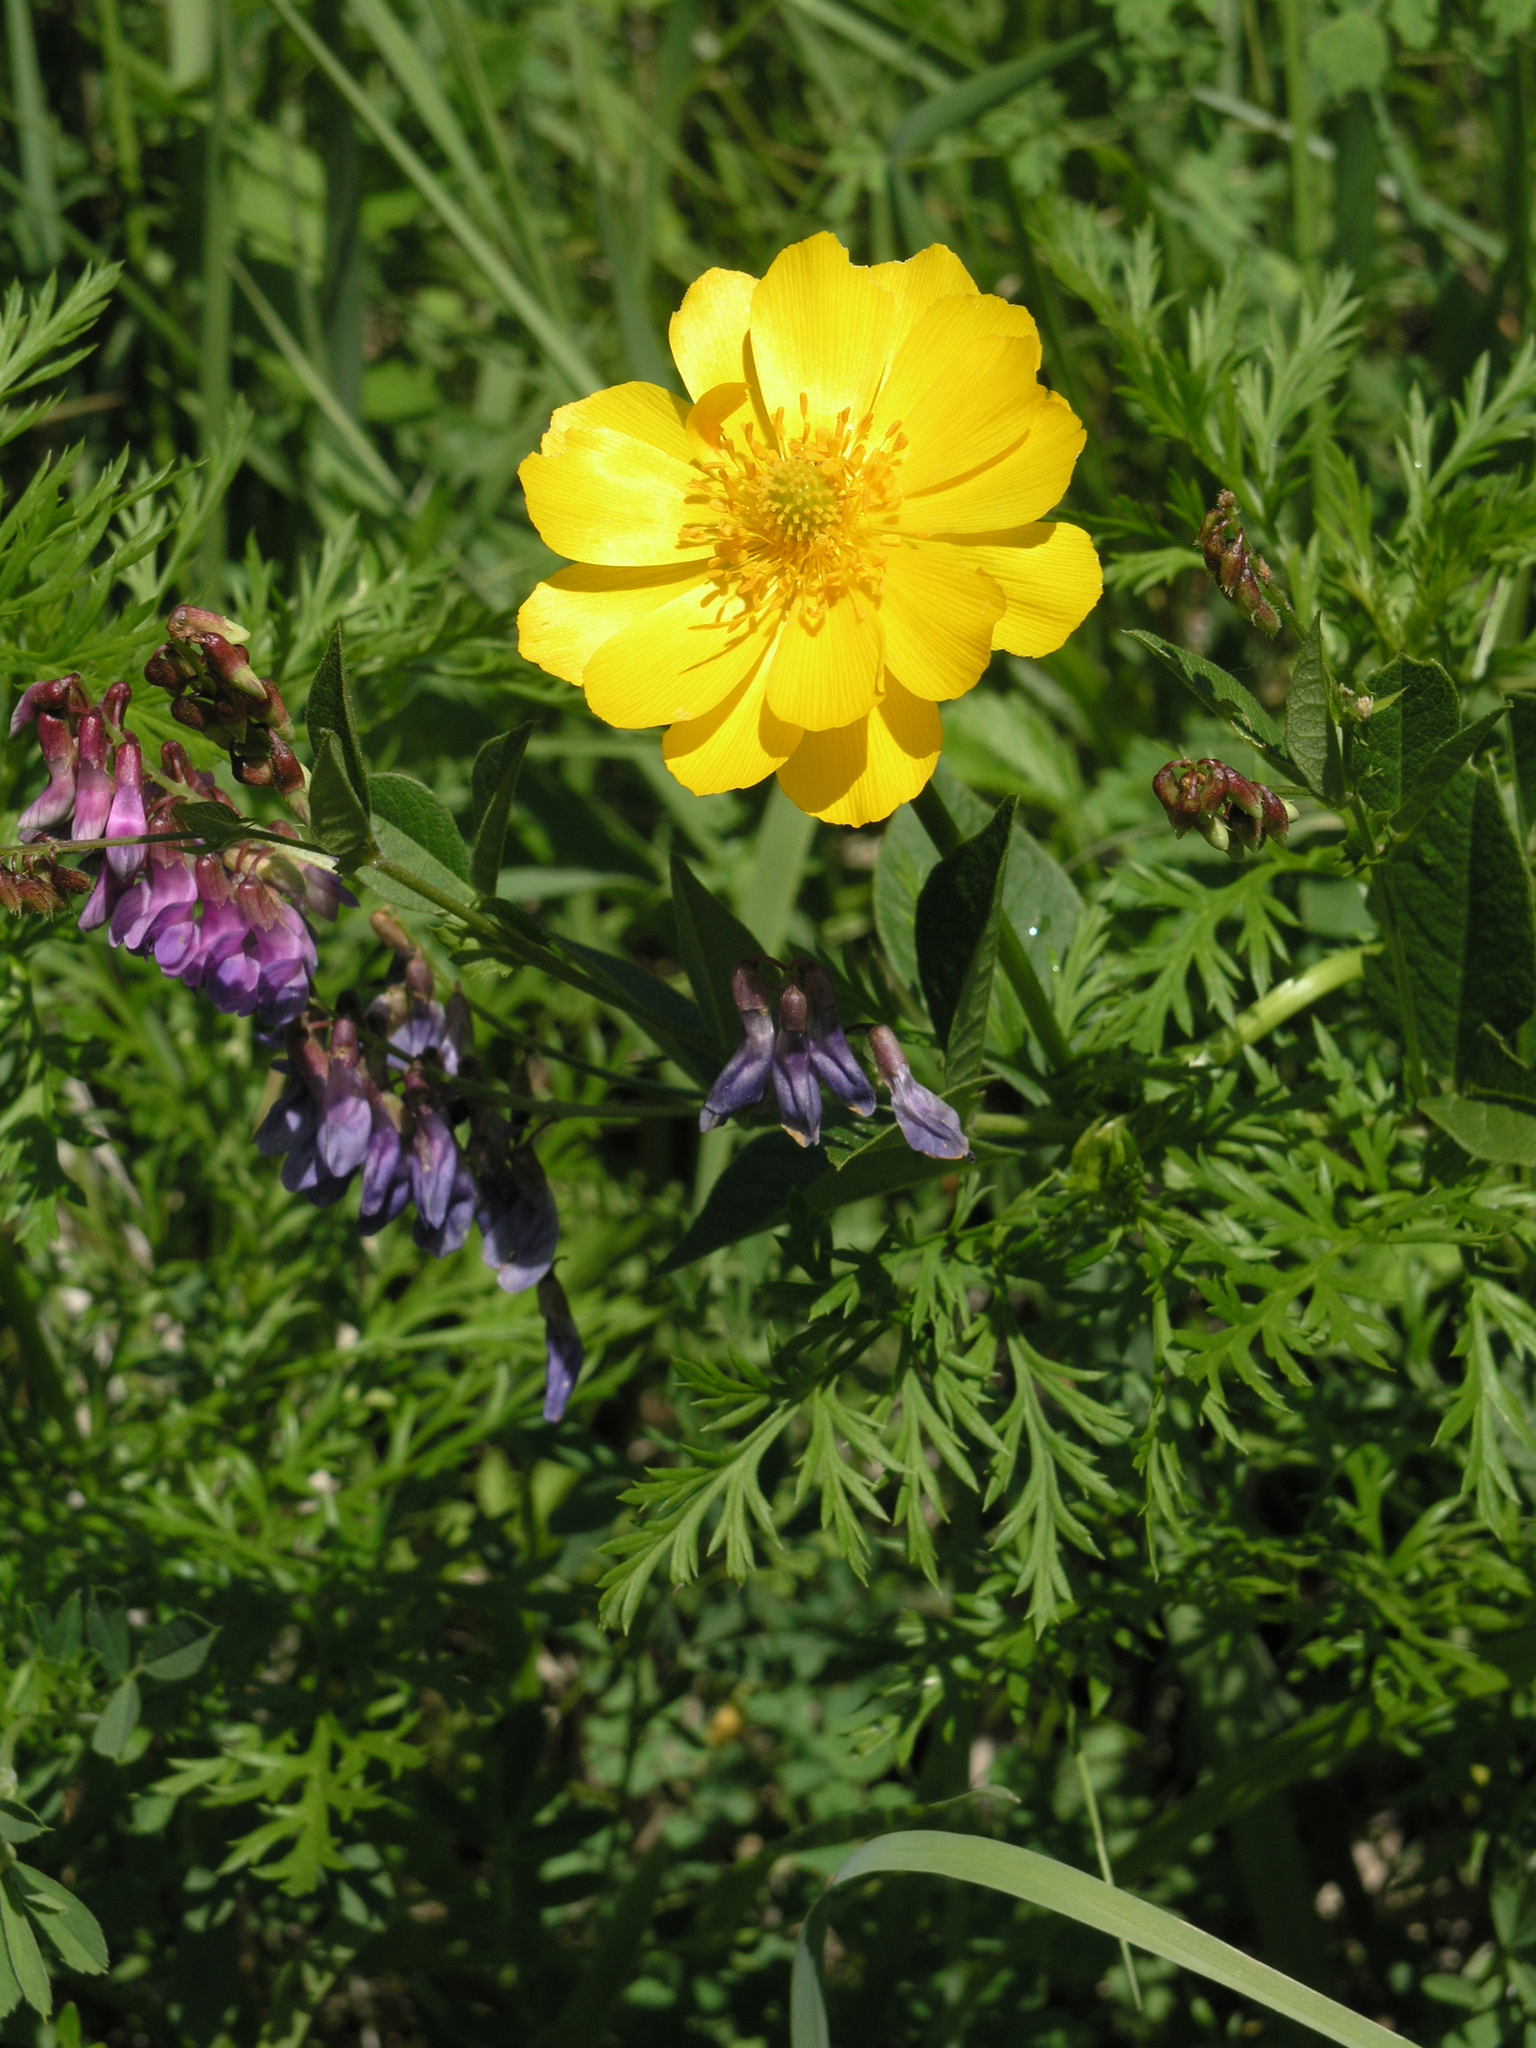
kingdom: Plantae
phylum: Tracheophyta
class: Magnoliopsida
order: Ranunculales
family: Ranunculaceae
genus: Adonis
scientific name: Adonis
